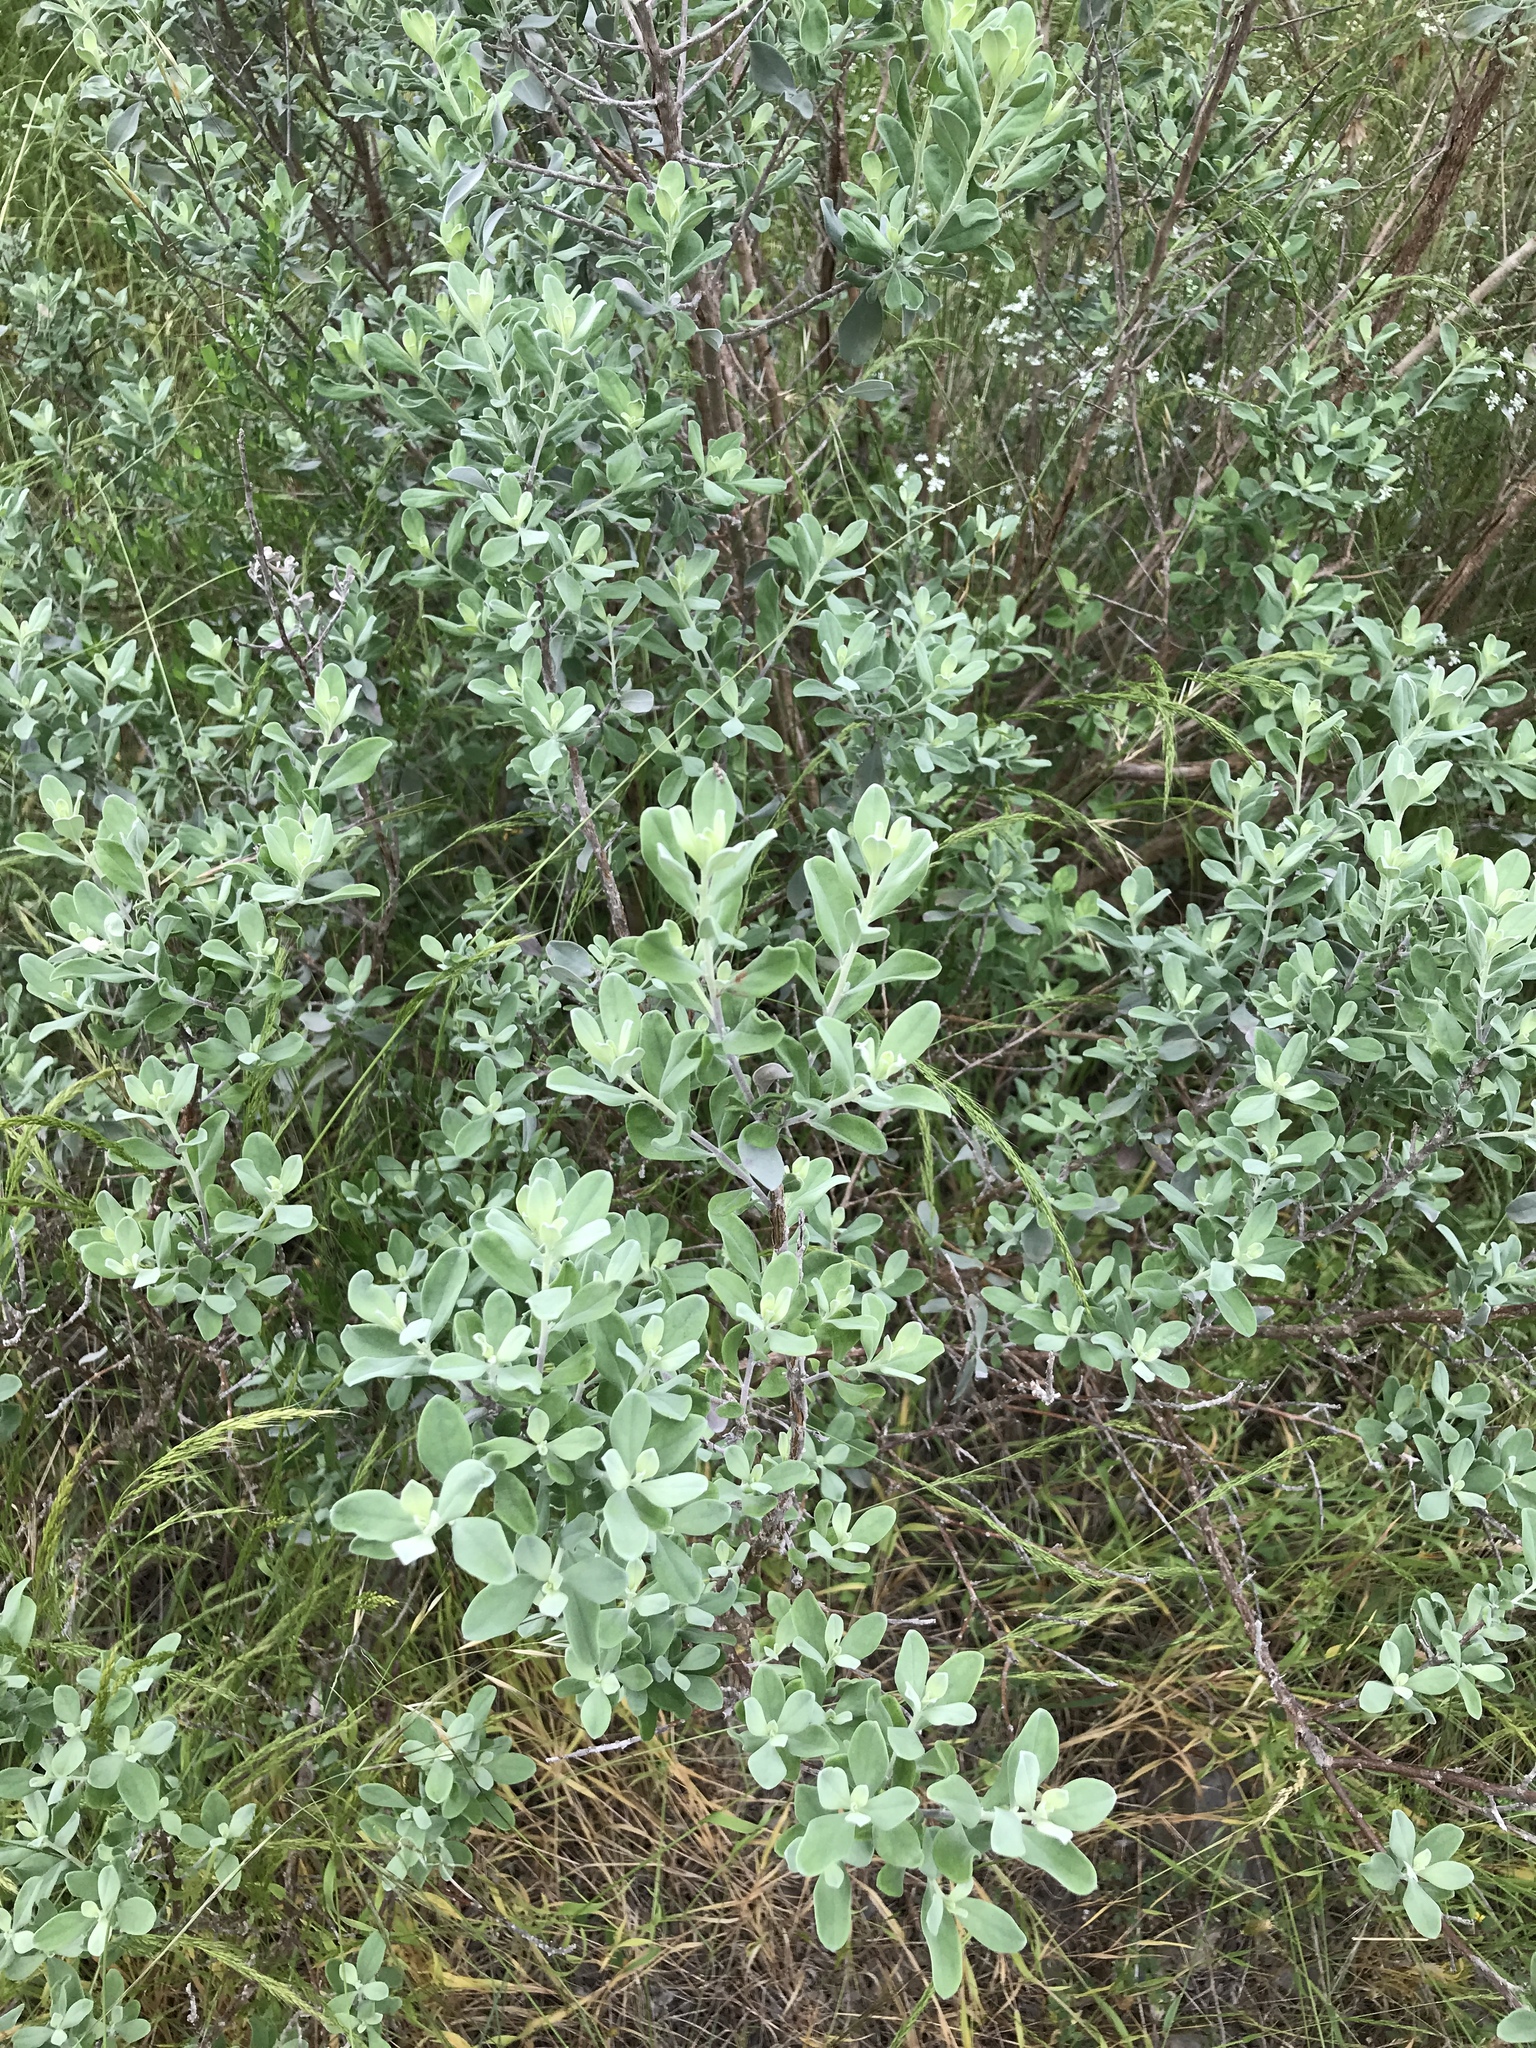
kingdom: Plantae
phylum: Tracheophyta
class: Magnoliopsida
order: Lamiales
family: Scrophulariaceae
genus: Leucophyllum
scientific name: Leucophyllum frutescens
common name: Texas silverleaf
